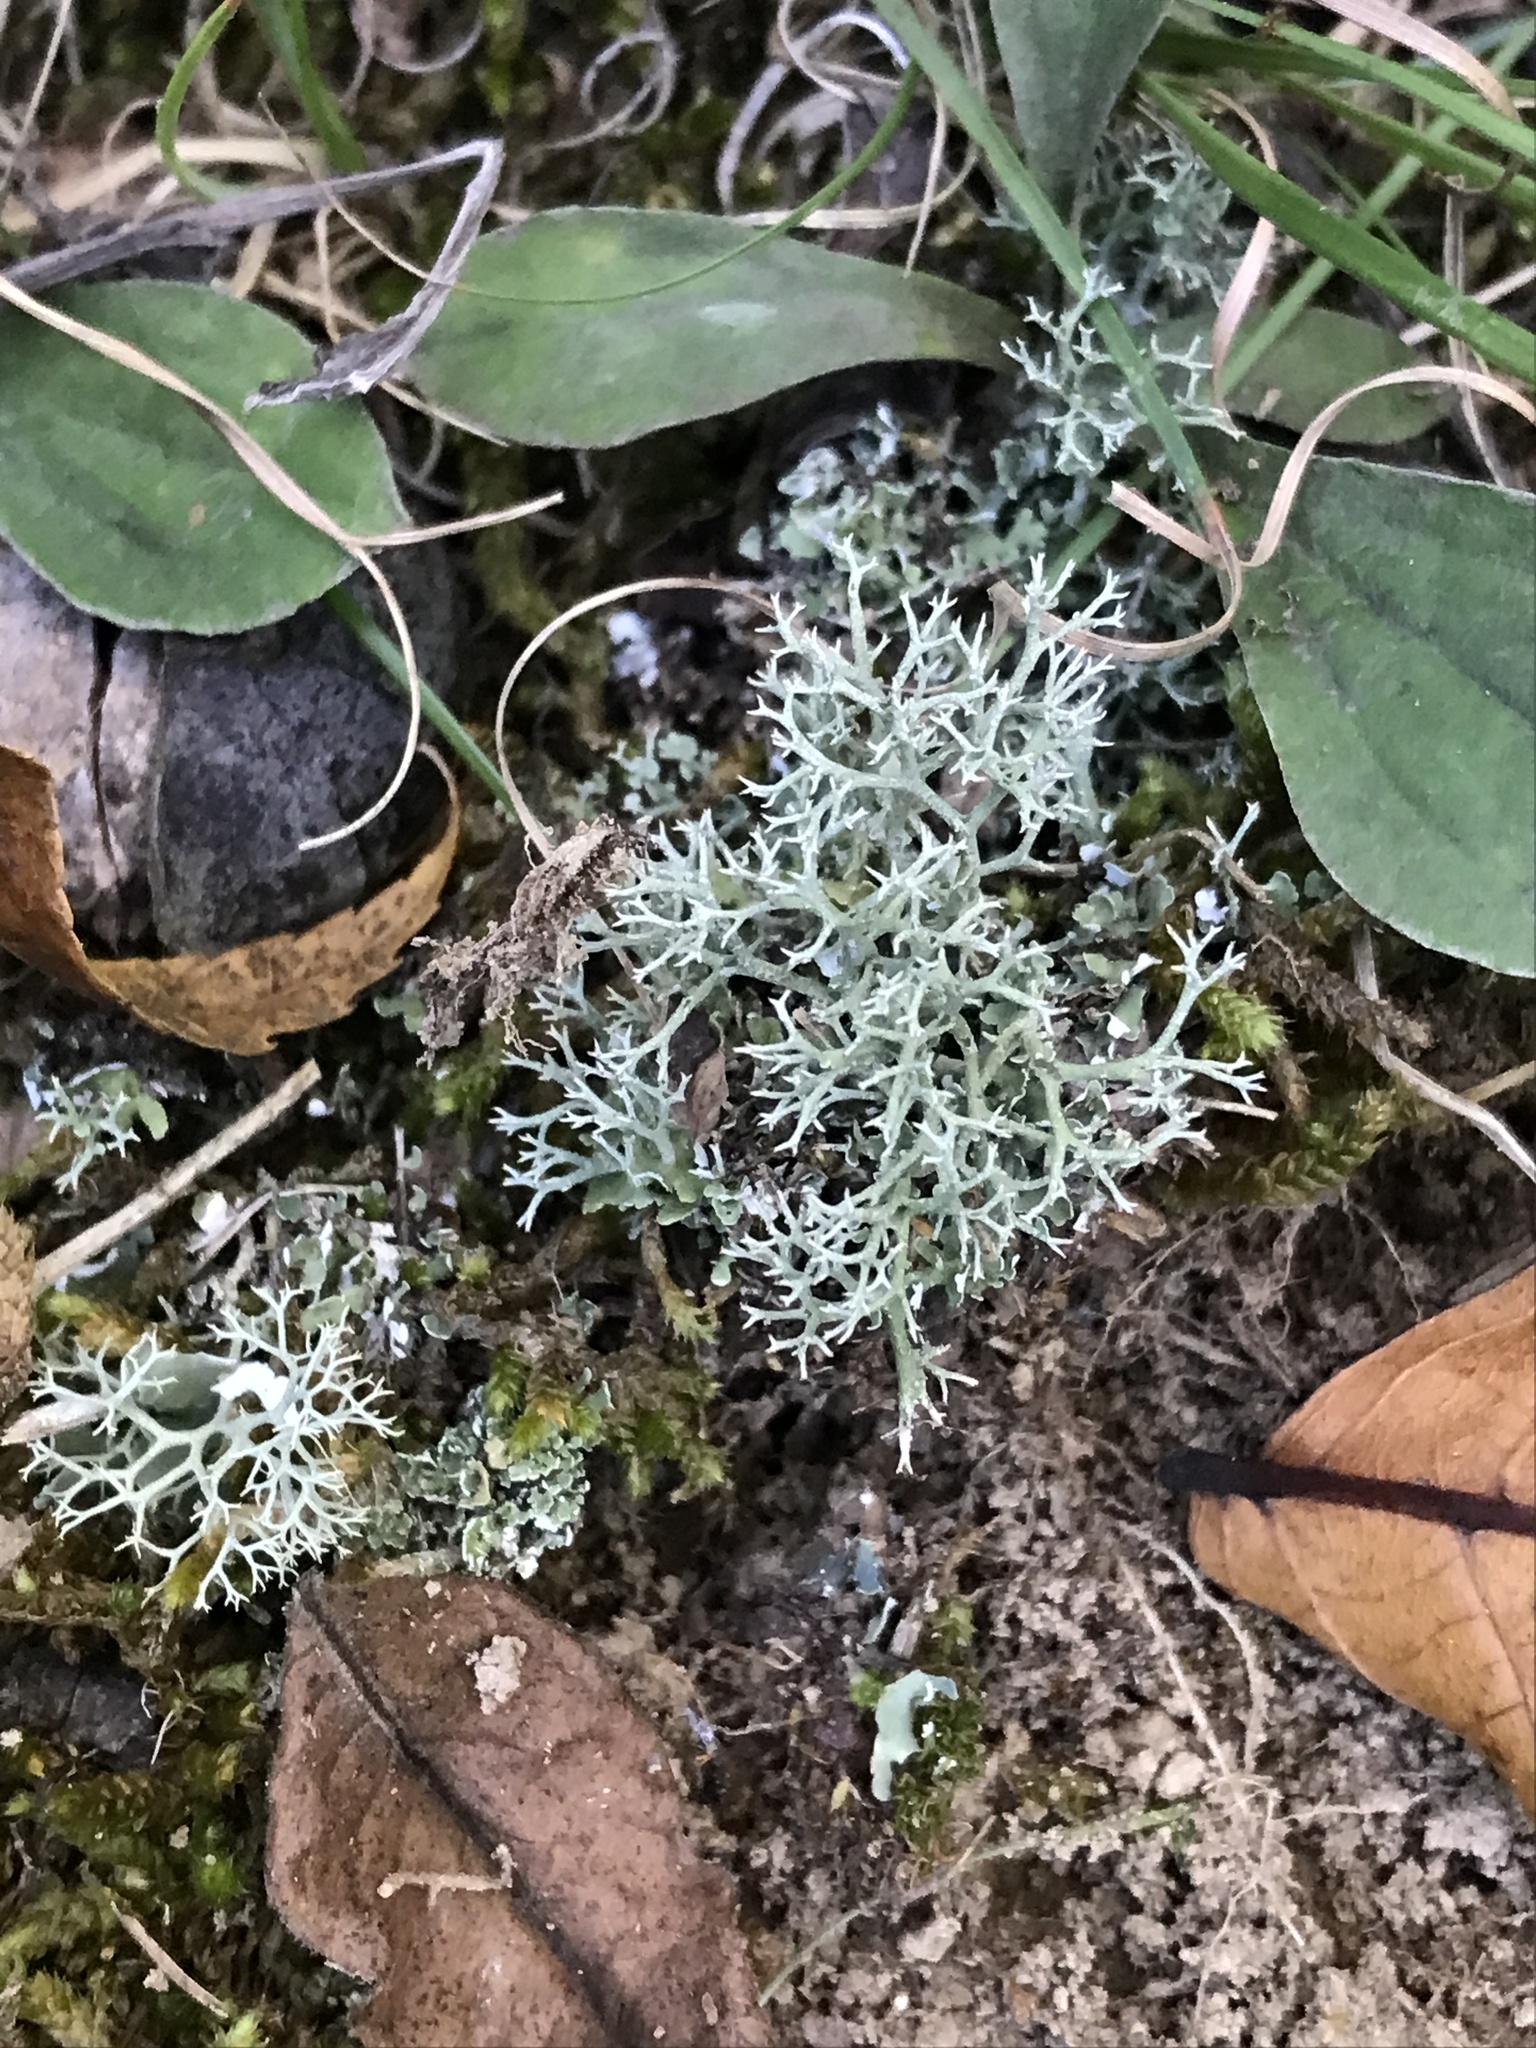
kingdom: Fungi
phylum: Ascomycota
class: Lecanoromycetes
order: Lecanorales
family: Cladoniaceae
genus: Cladonia
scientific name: Cladonia rangiferina
